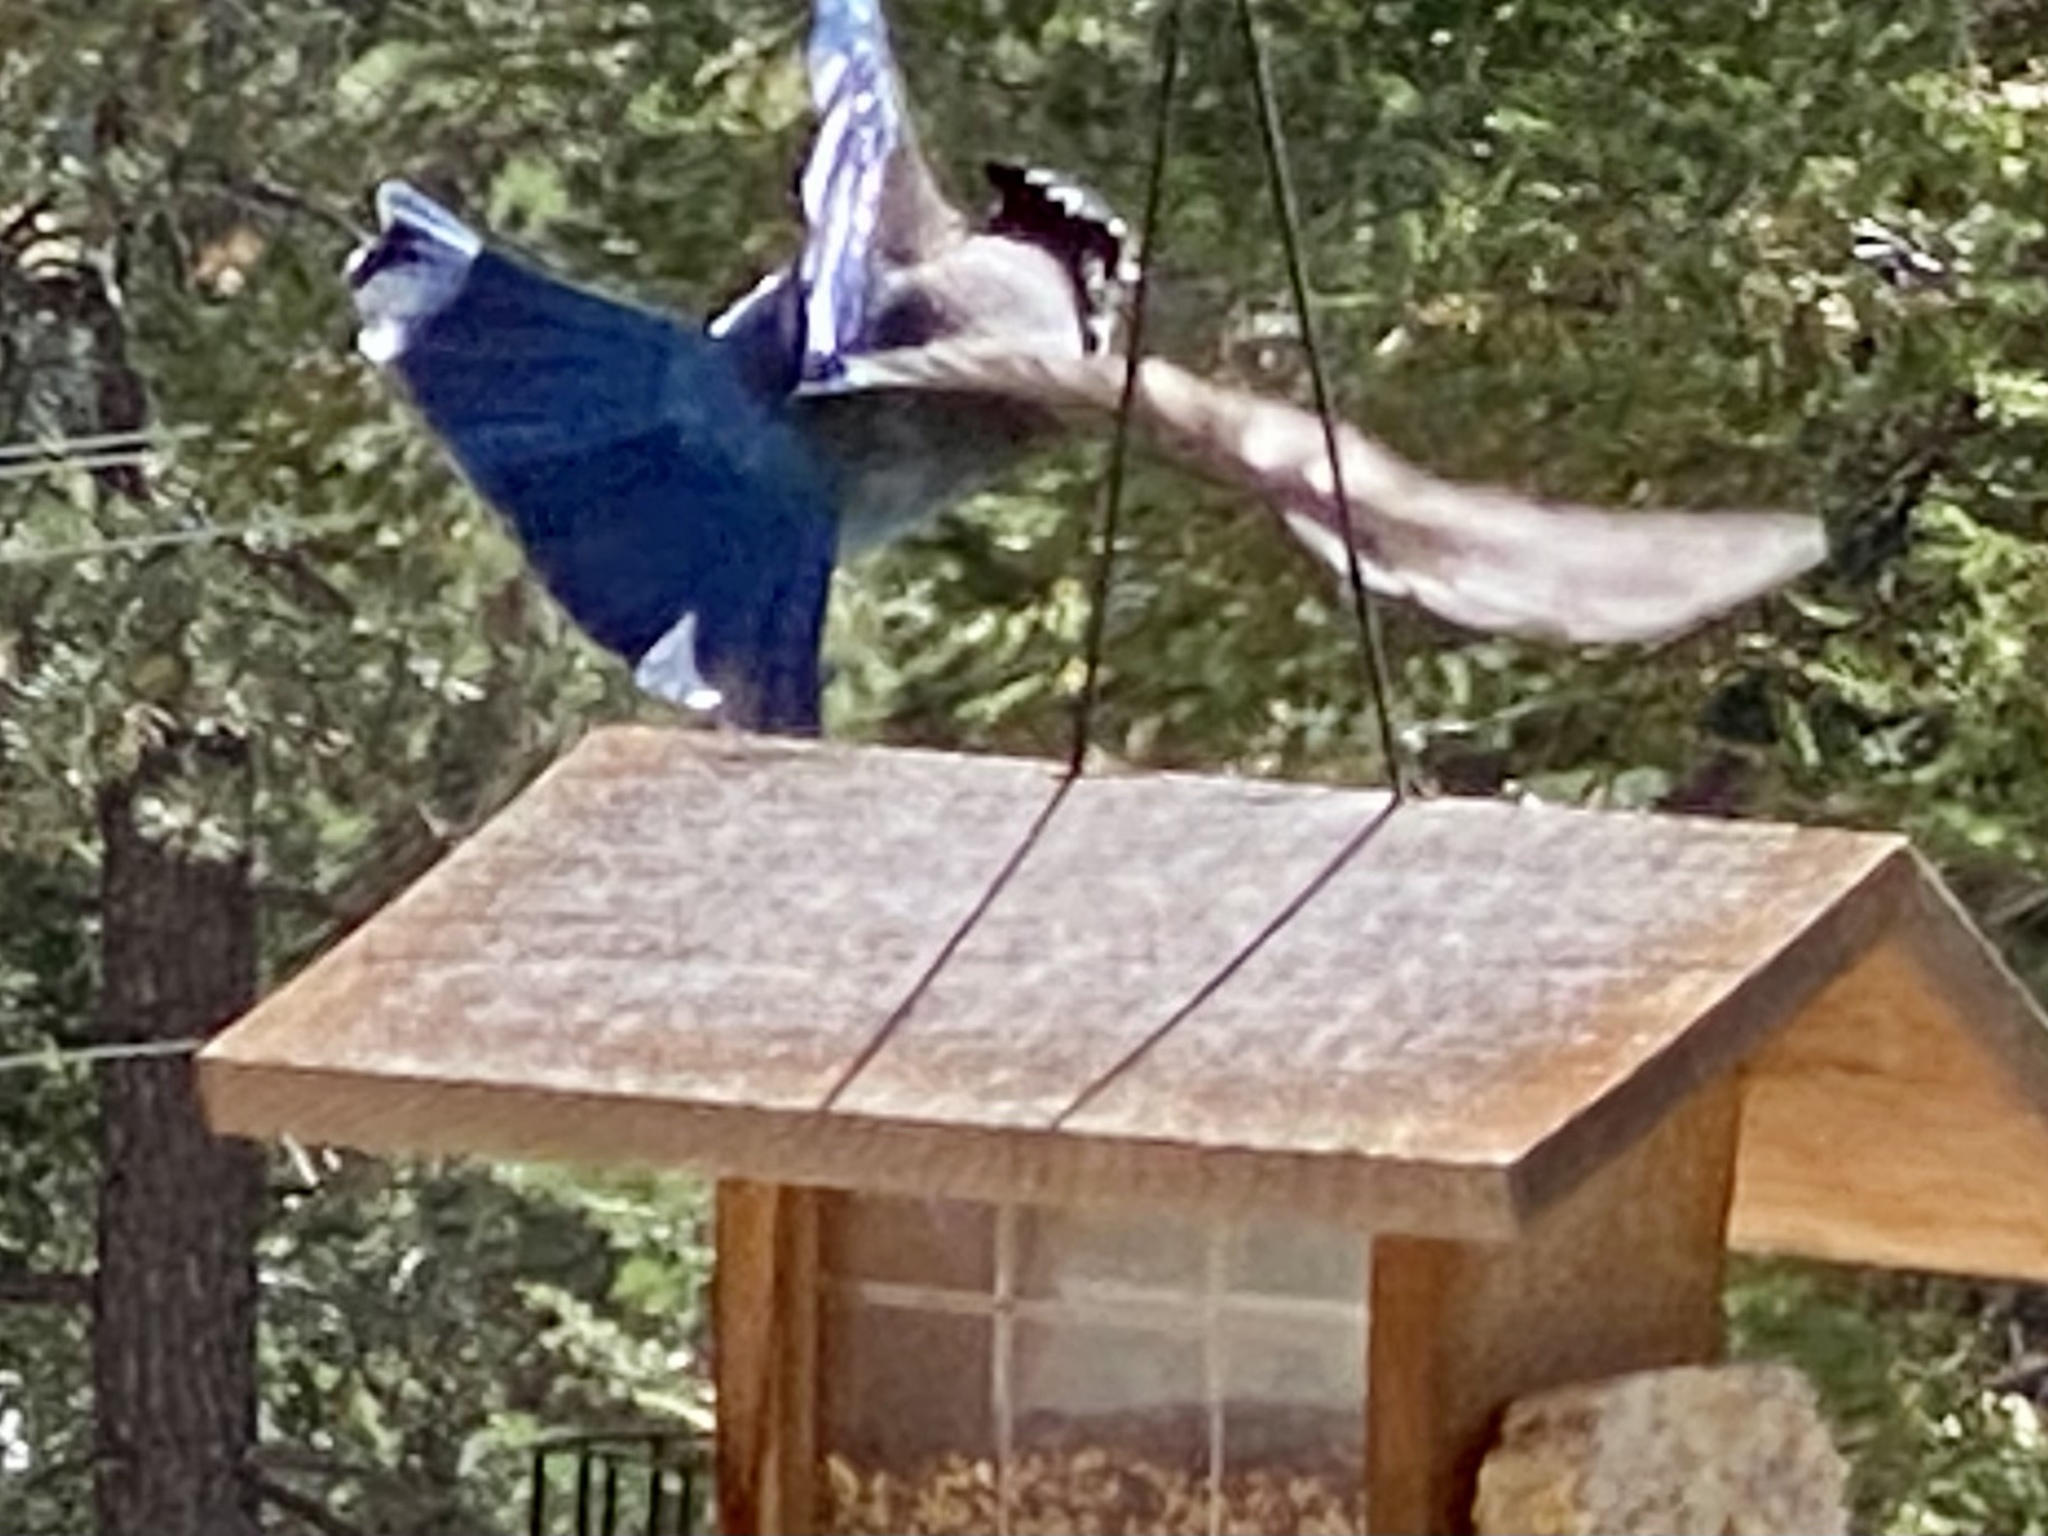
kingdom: Animalia
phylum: Chordata
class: Aves
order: Passeriformes
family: Corvidae
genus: Cyanocitta
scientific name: Cyanocitta stelleri
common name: Steller's jay
